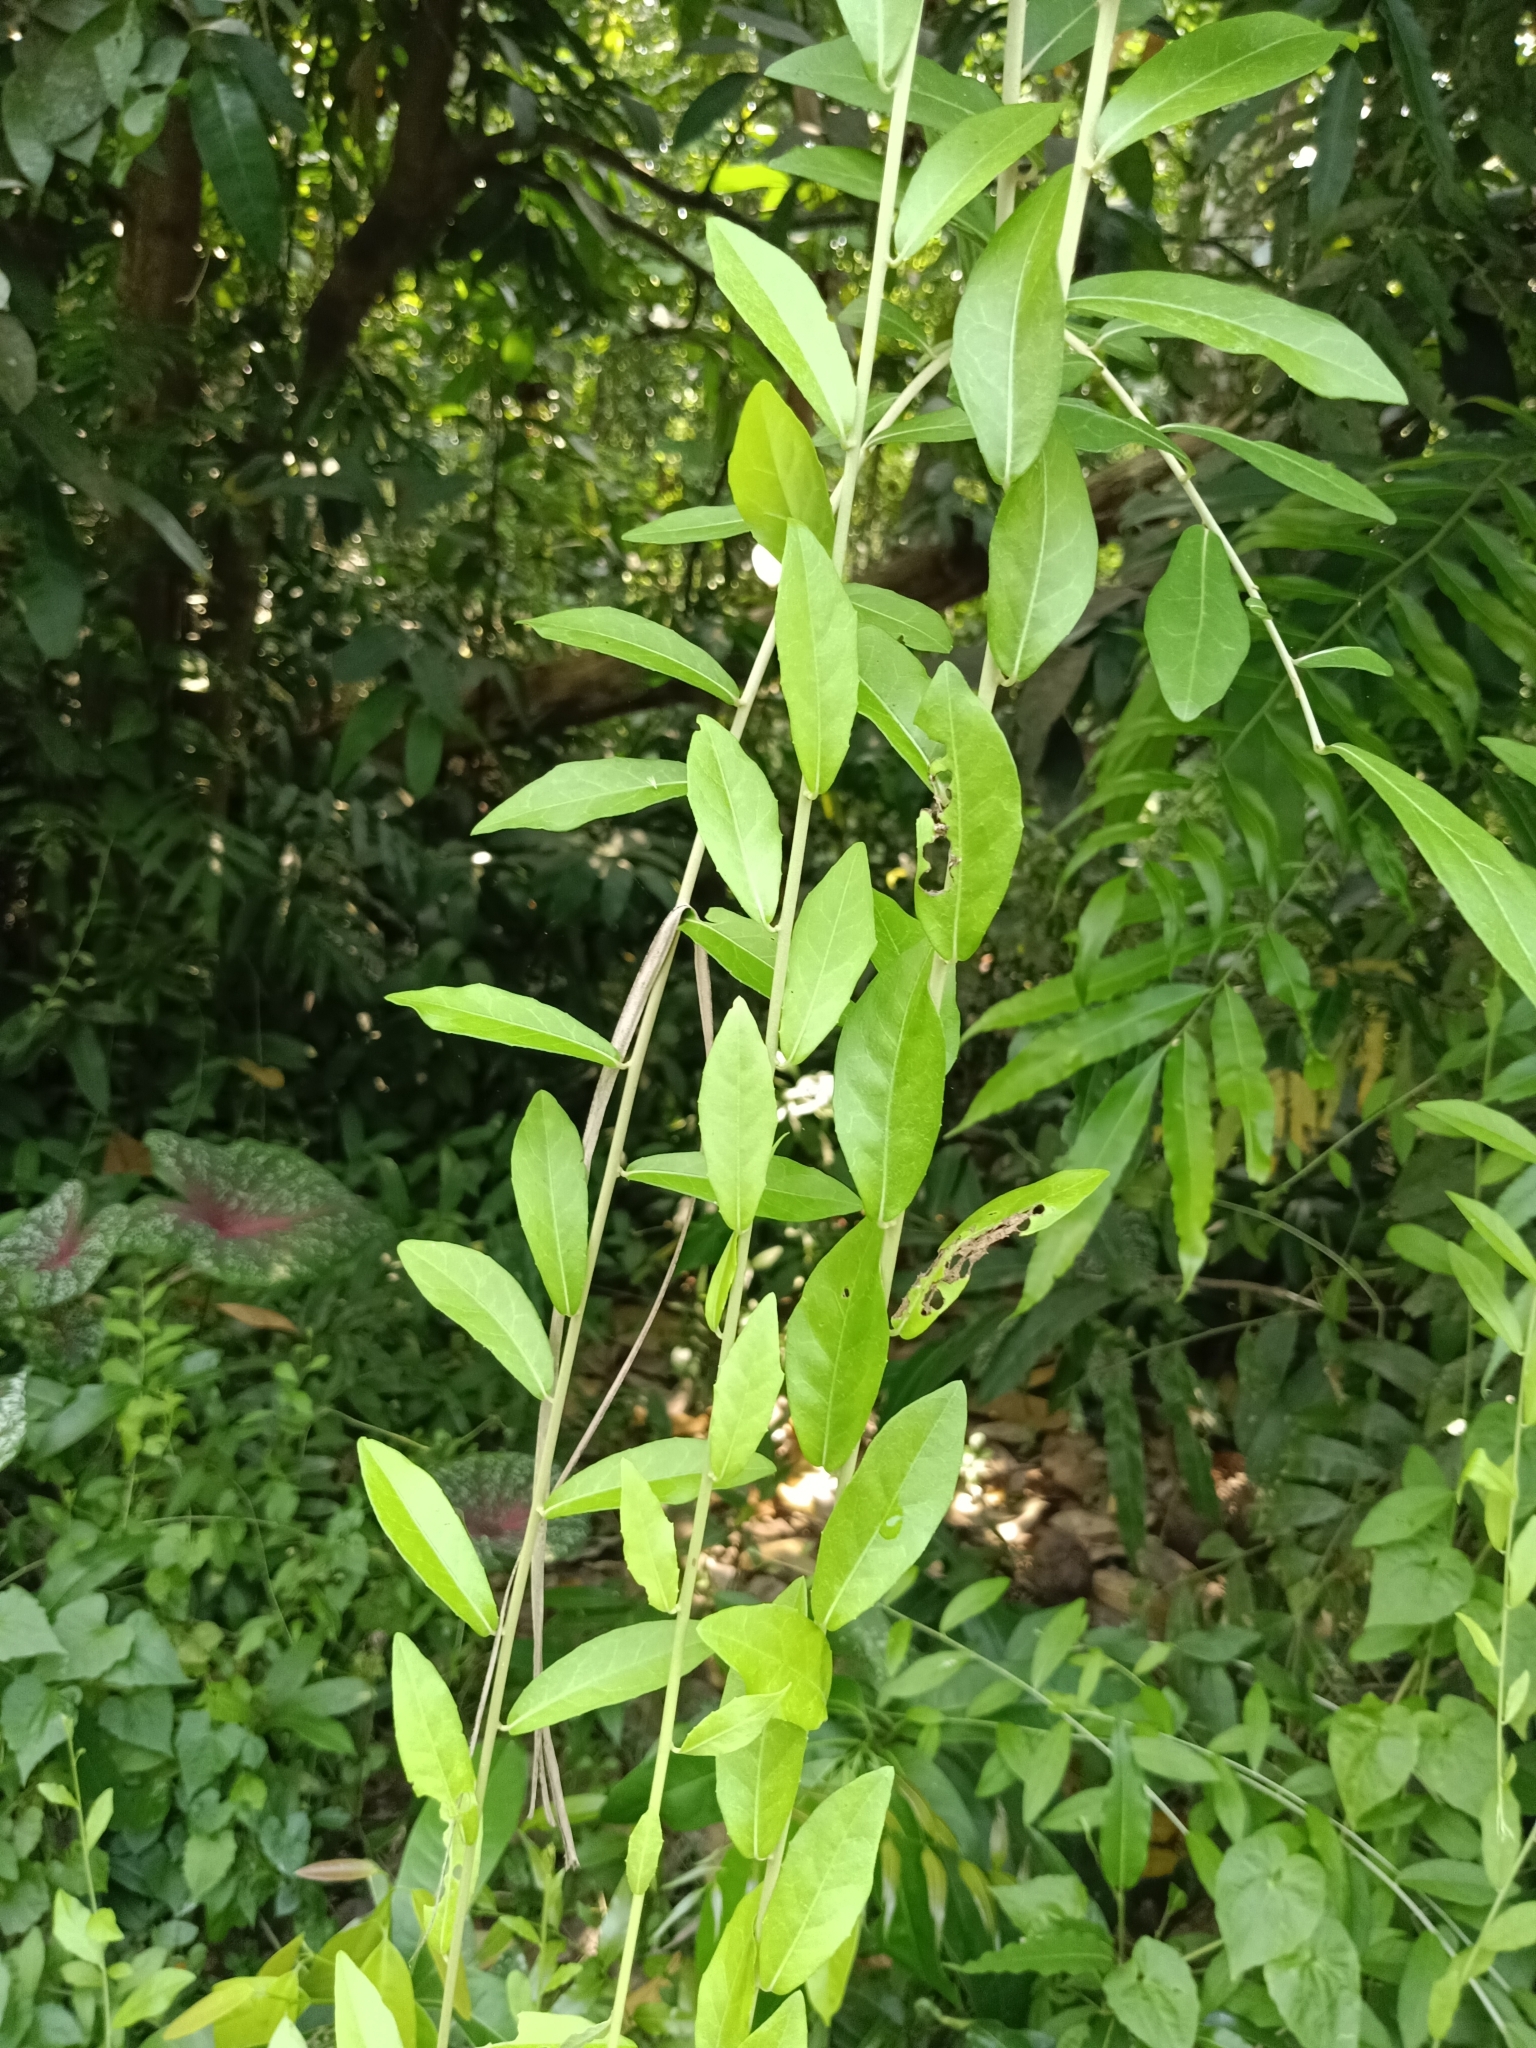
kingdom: Plantae
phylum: Tracheophyta
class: Magnoliopsida
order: Asterales
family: Asteraceae
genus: Tarlmounia
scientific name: Tarlmounia elliptica
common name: Kheua sa lot
